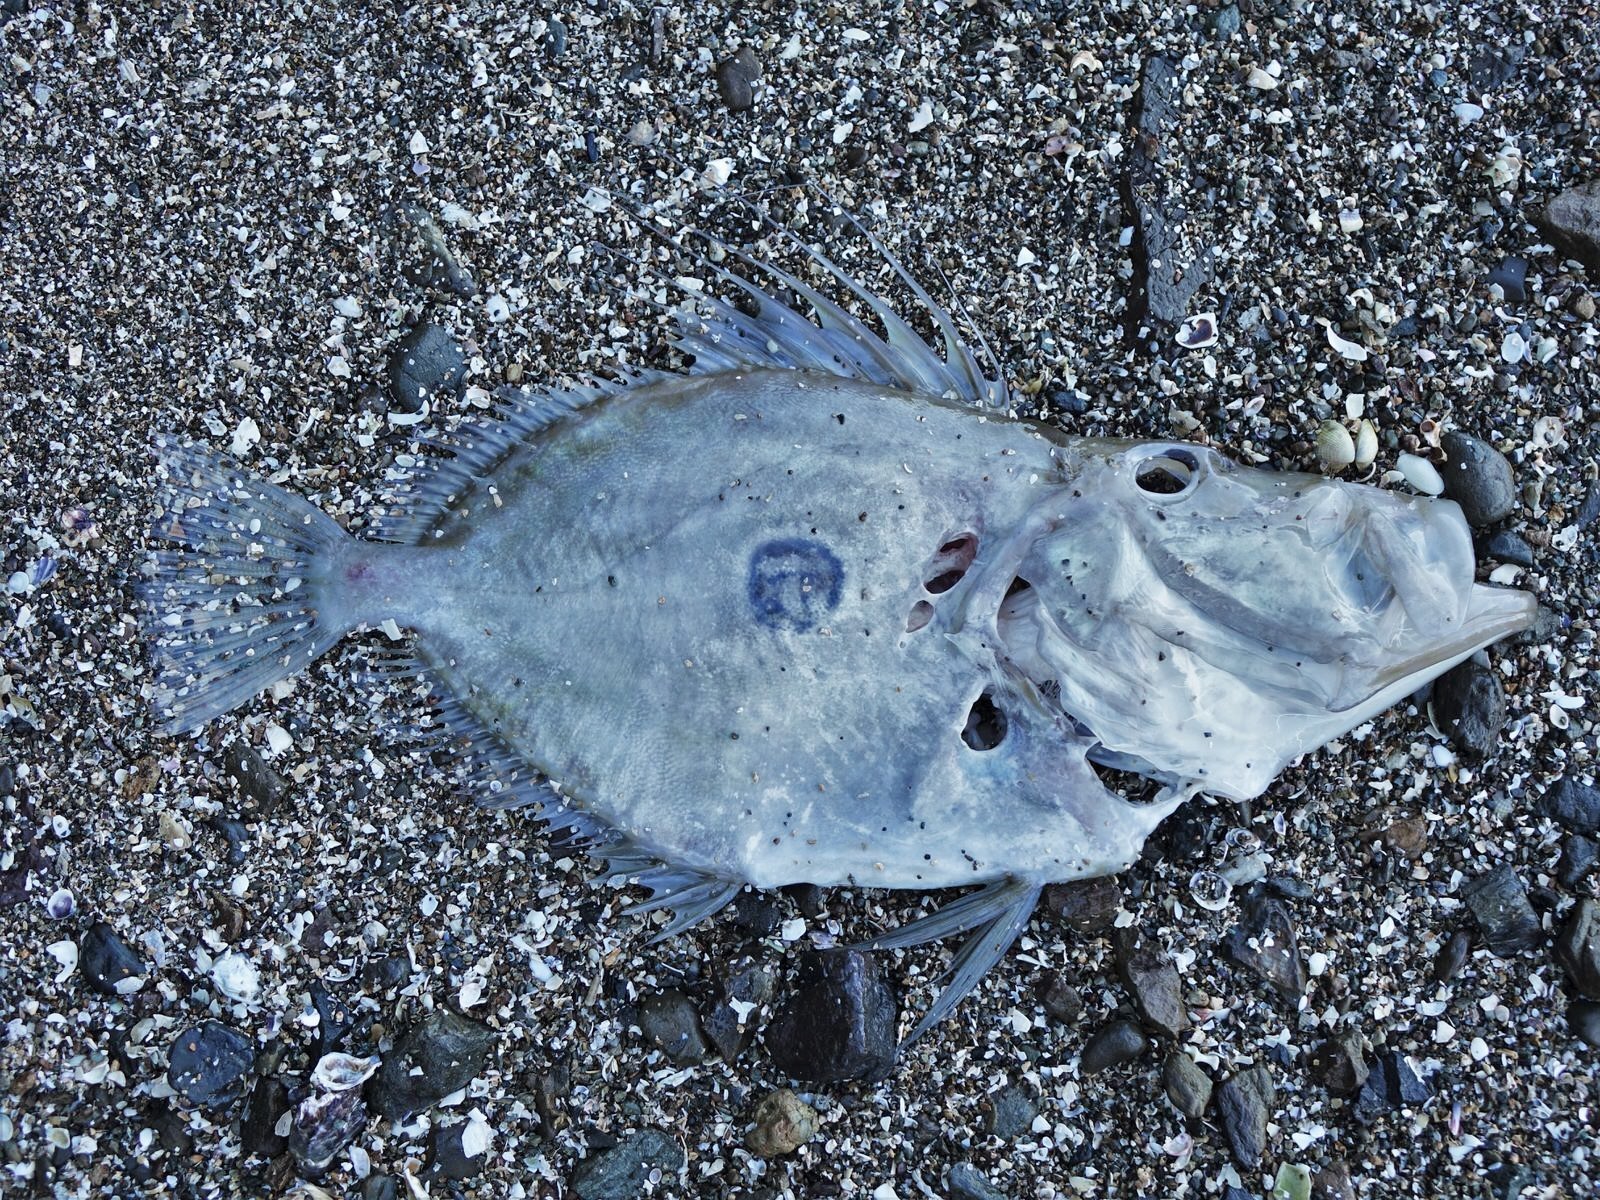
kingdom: Animalia
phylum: Chordata
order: Zeiformes
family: Zeidae
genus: Zeus
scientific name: Zeus faber
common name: John dory
